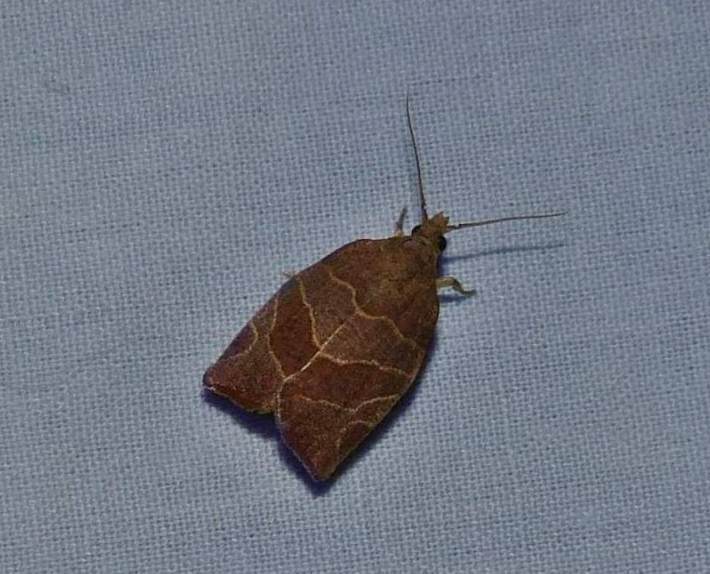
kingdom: Animalia
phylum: Arthropoda
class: Insecta
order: Lepidoptera
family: Tortricidae
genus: Pandemis
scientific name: Pandemis limitata
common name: Three-lined leafroller moth
